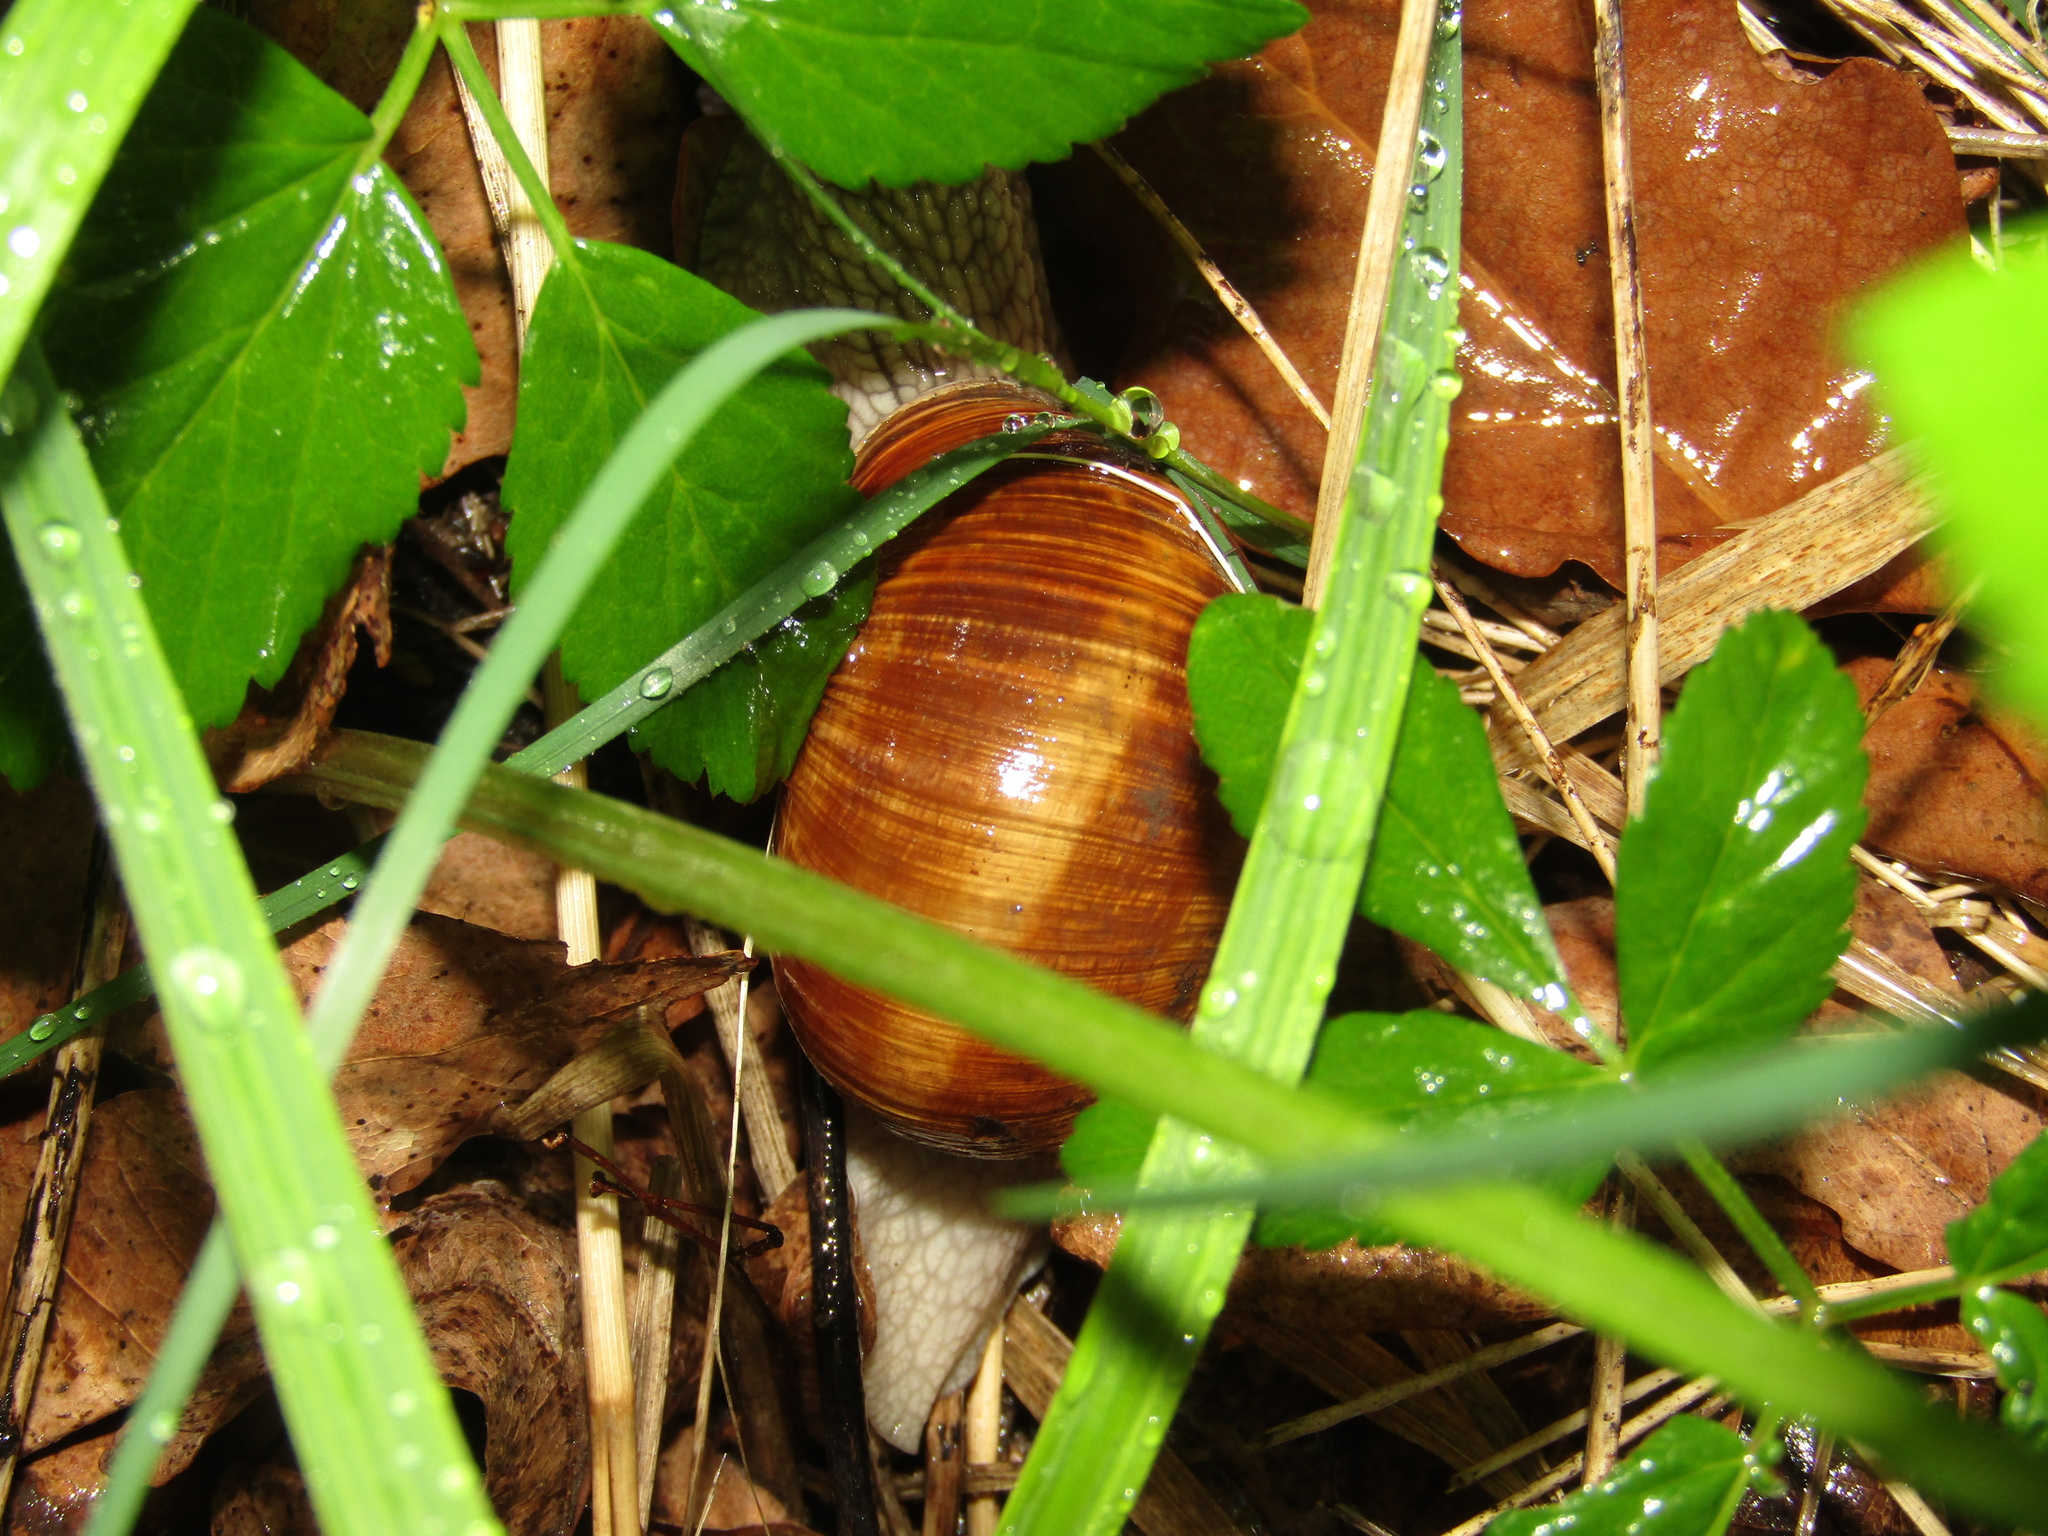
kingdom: Animalia
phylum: Mollusca
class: Gastropoda
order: Stylommatophora
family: Helicidae
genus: Helix
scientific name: Helix pomatia
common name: Roman snail
